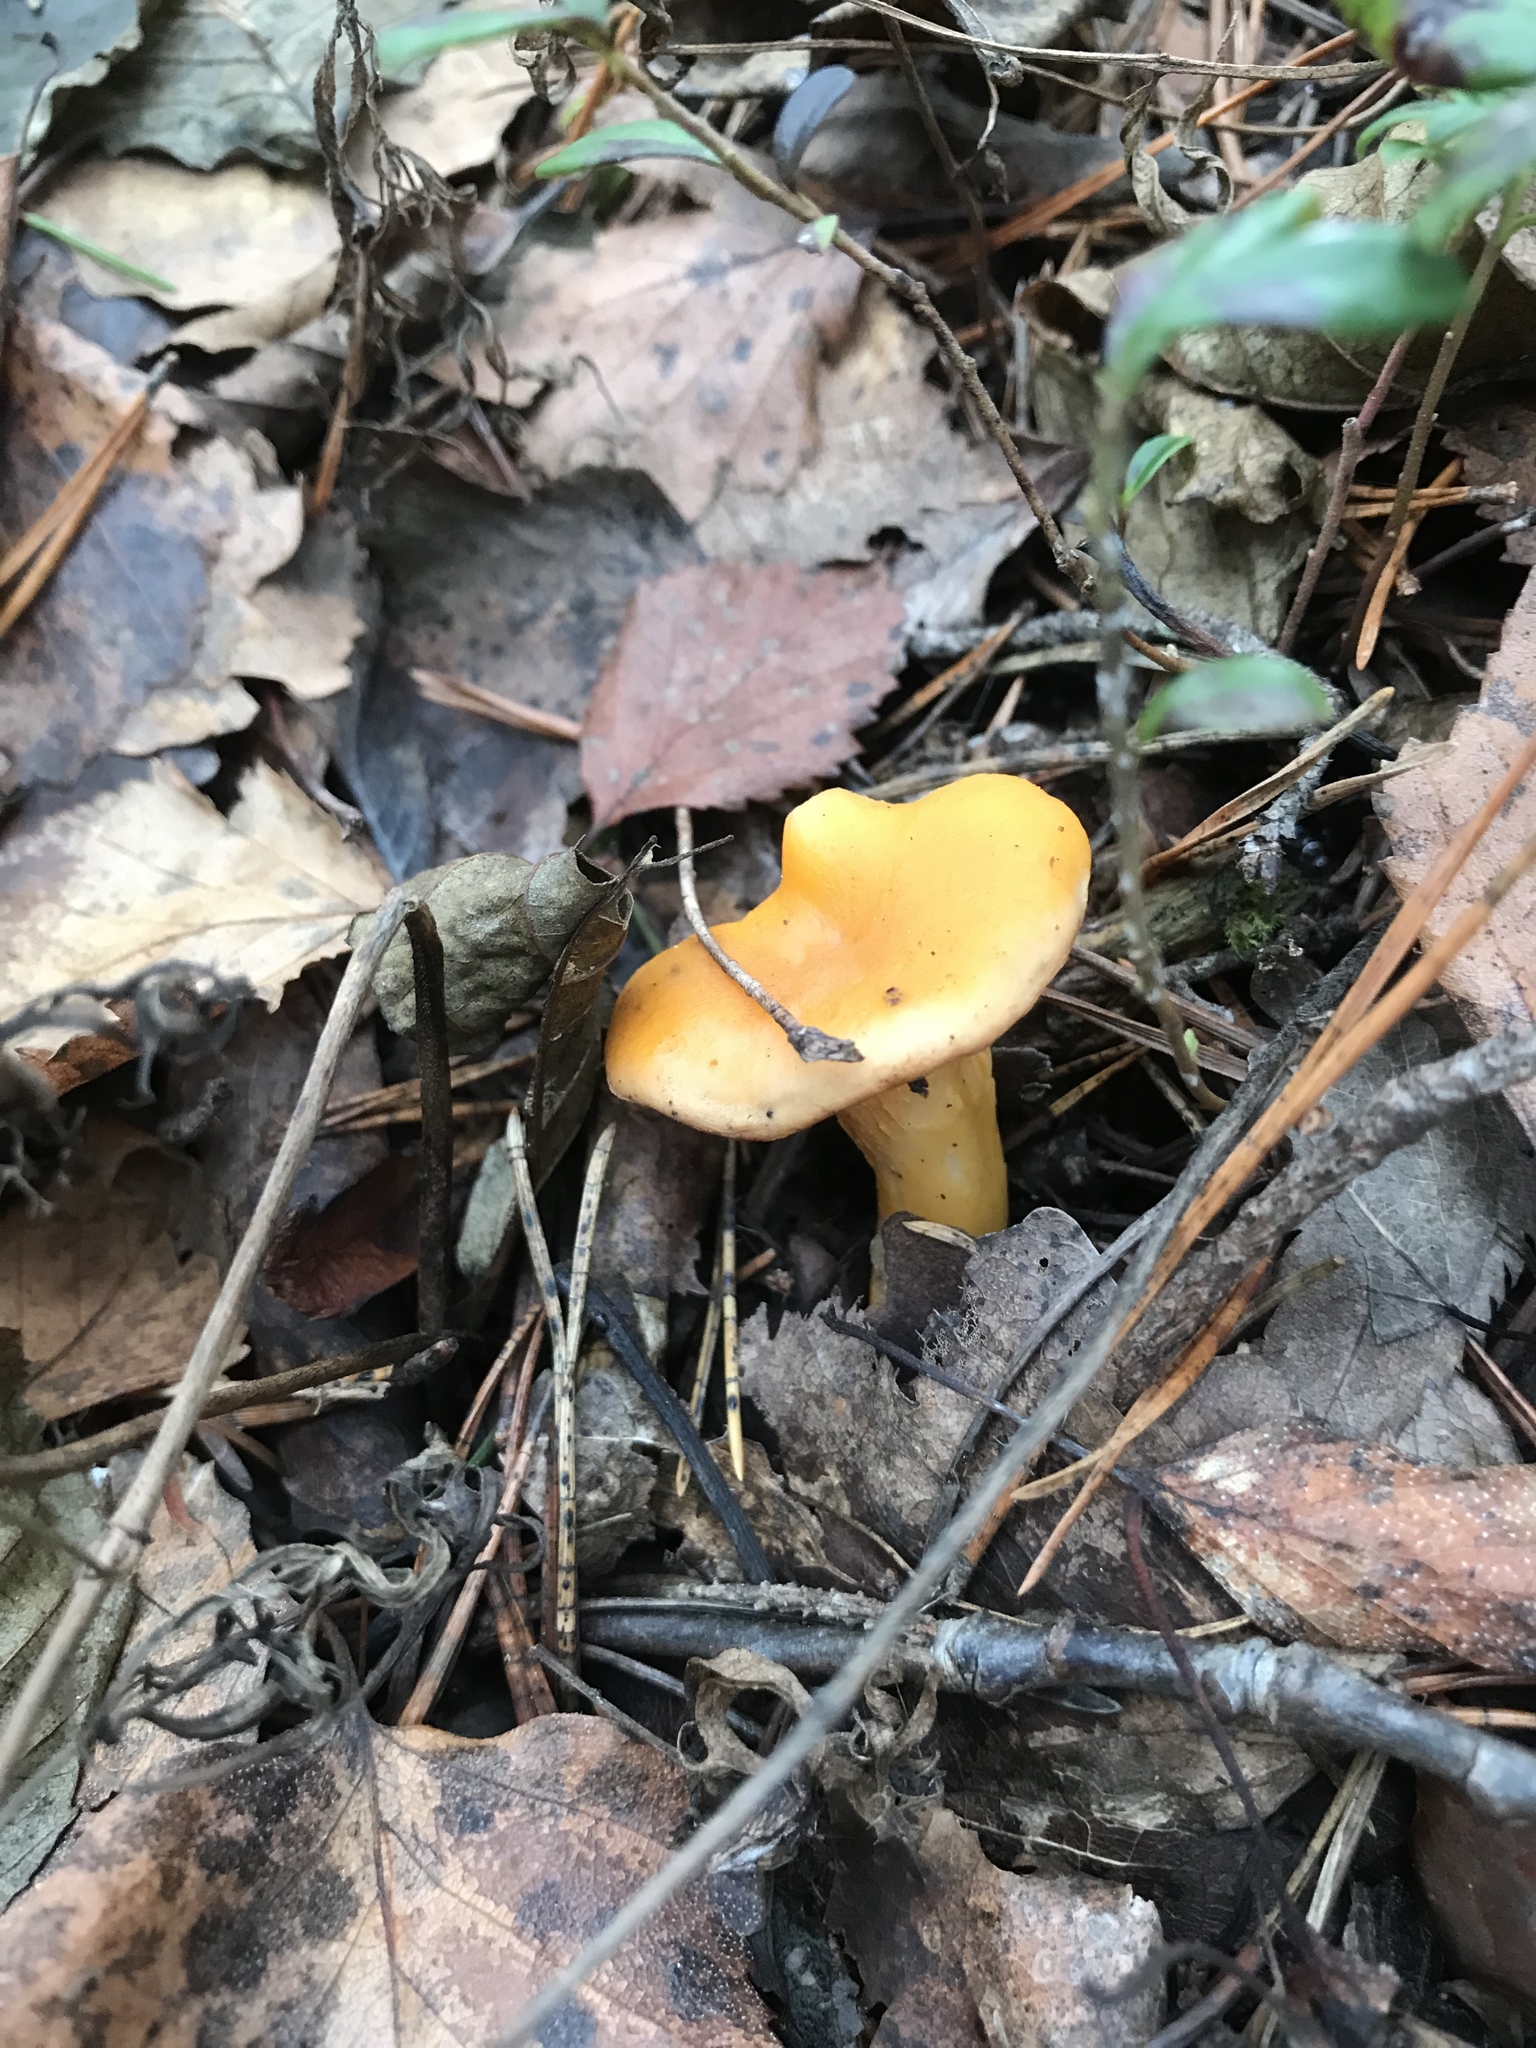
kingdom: Fungi
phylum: Basidiomycota
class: Agaricomycetes
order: Cantharellales
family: Hydnaceae
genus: Cantharellus
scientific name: Cantharellus cibarius
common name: Chanterelle
